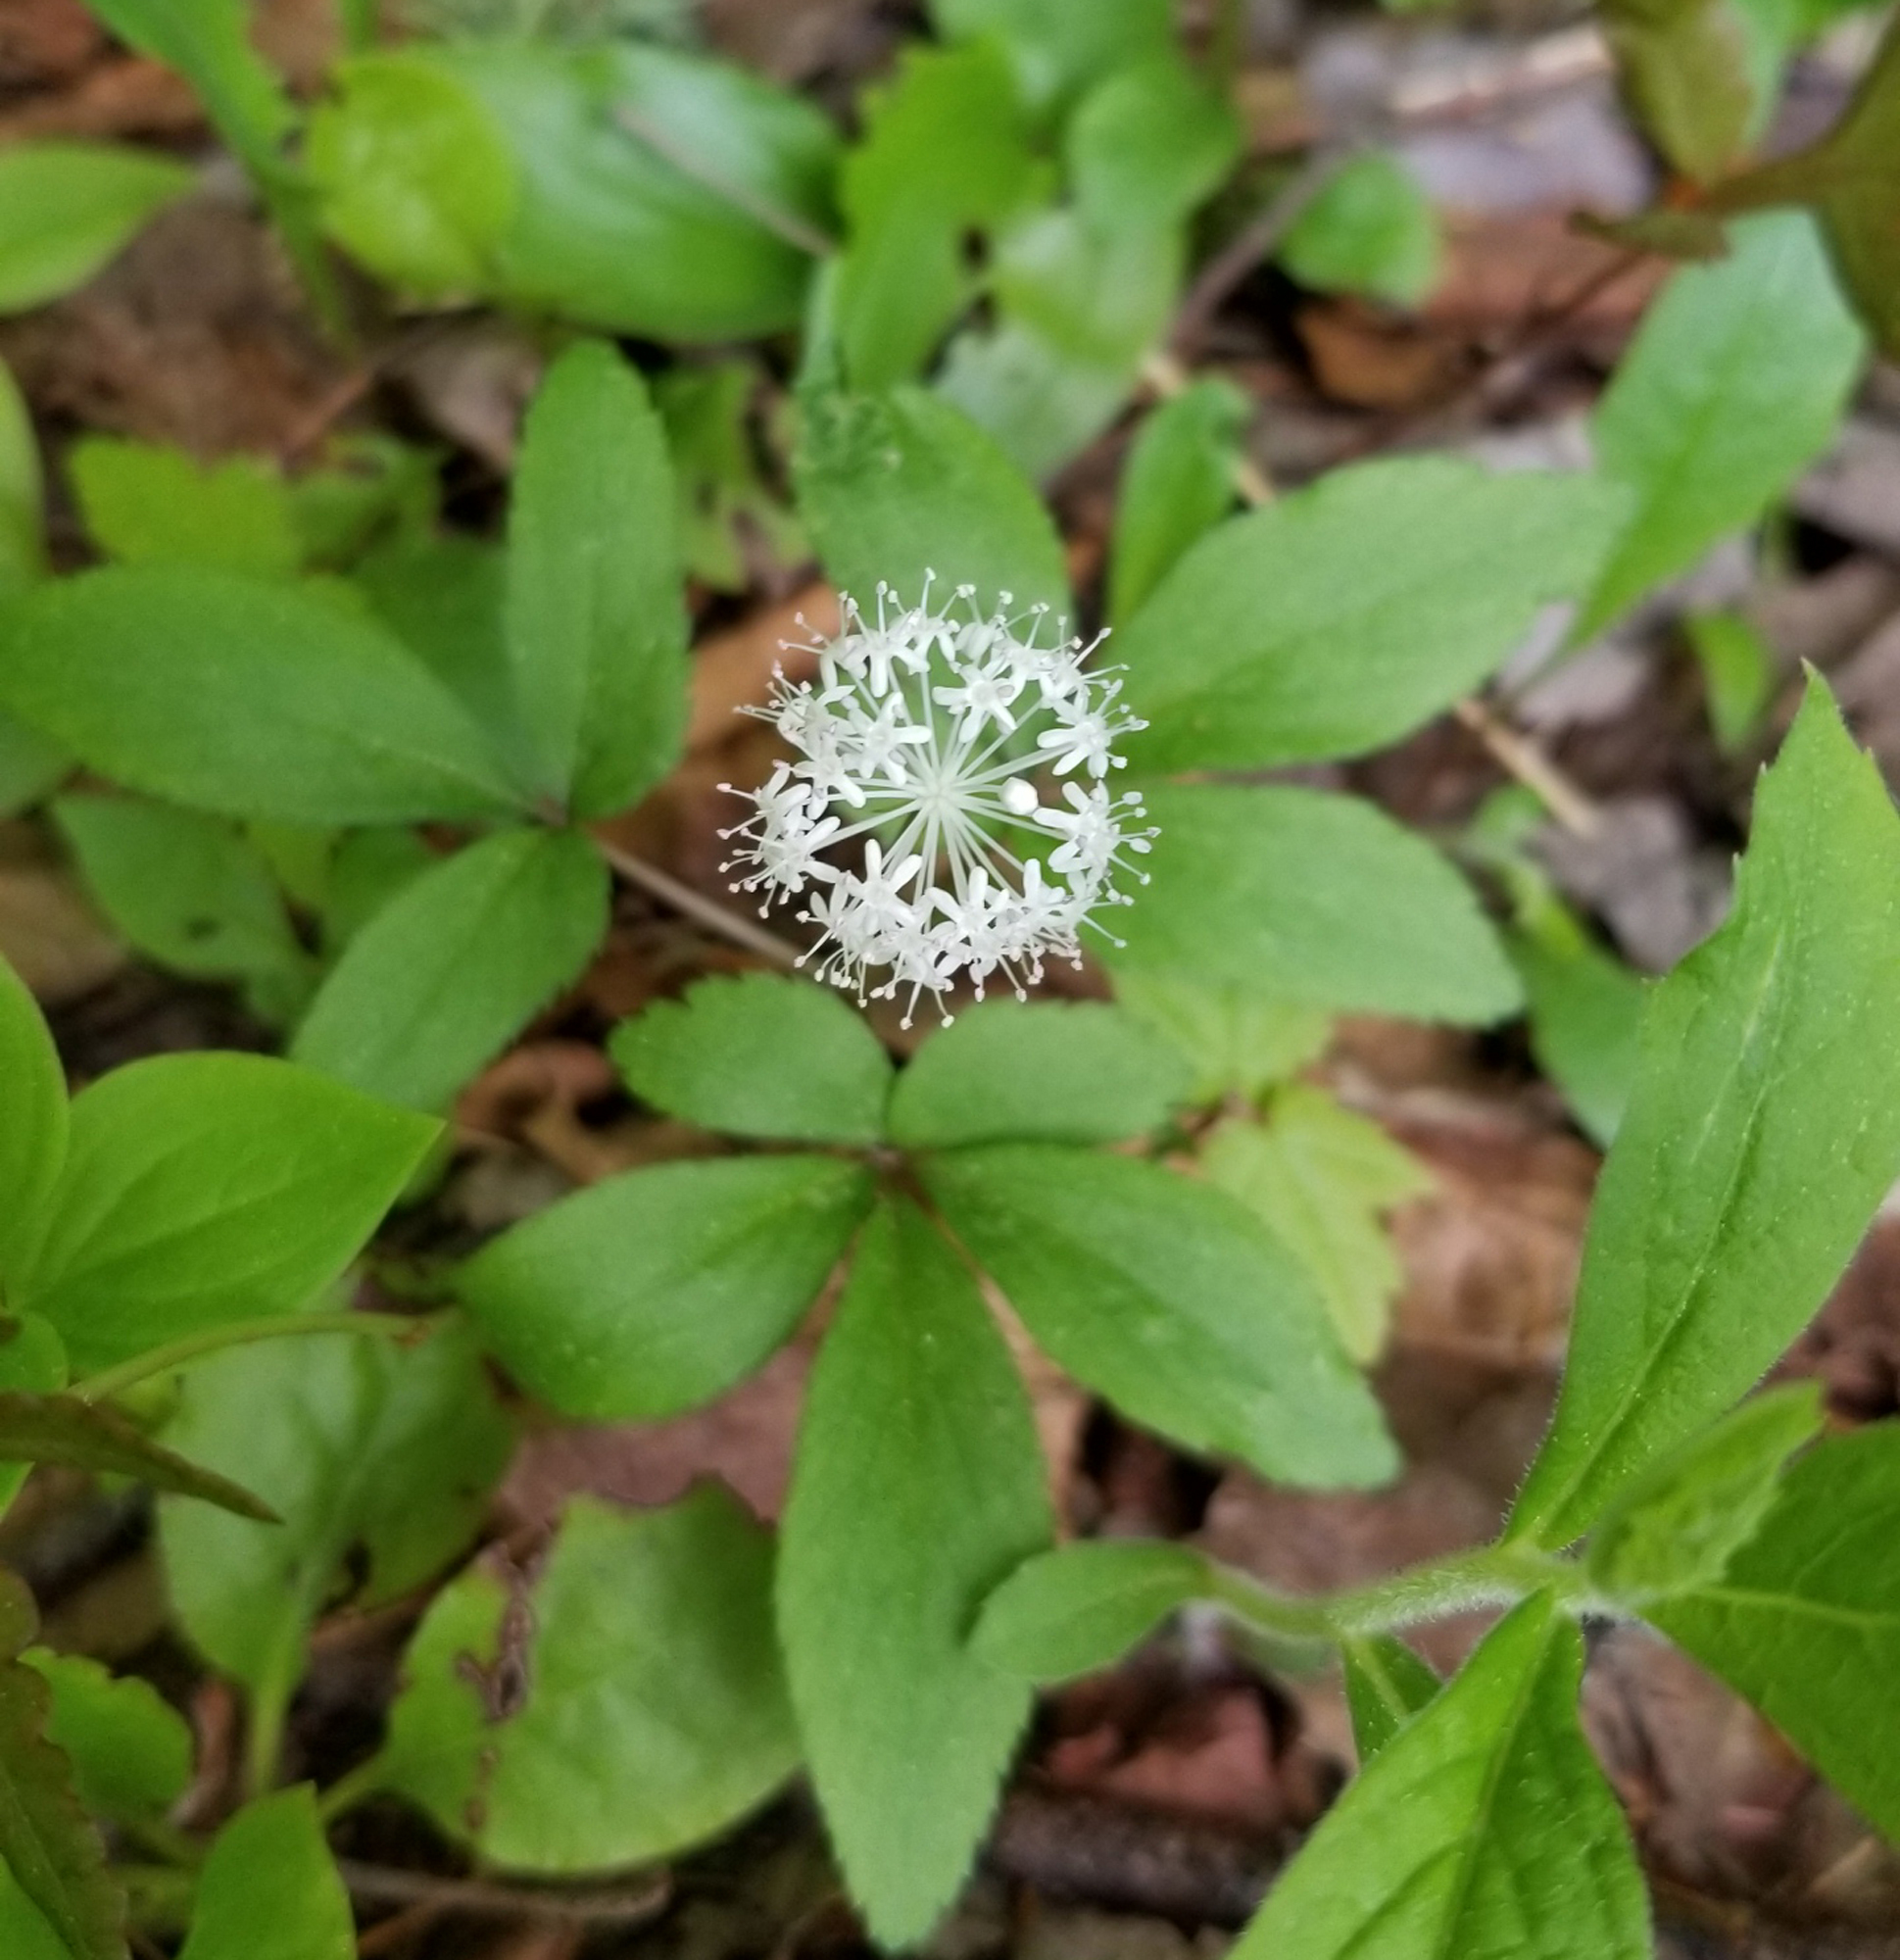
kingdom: Plantae
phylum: Tracheophyta
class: Magnoliopsida
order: Apiales
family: Araliaceae
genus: Panax
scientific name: Panax trifolius
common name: Dwarf ginseng
